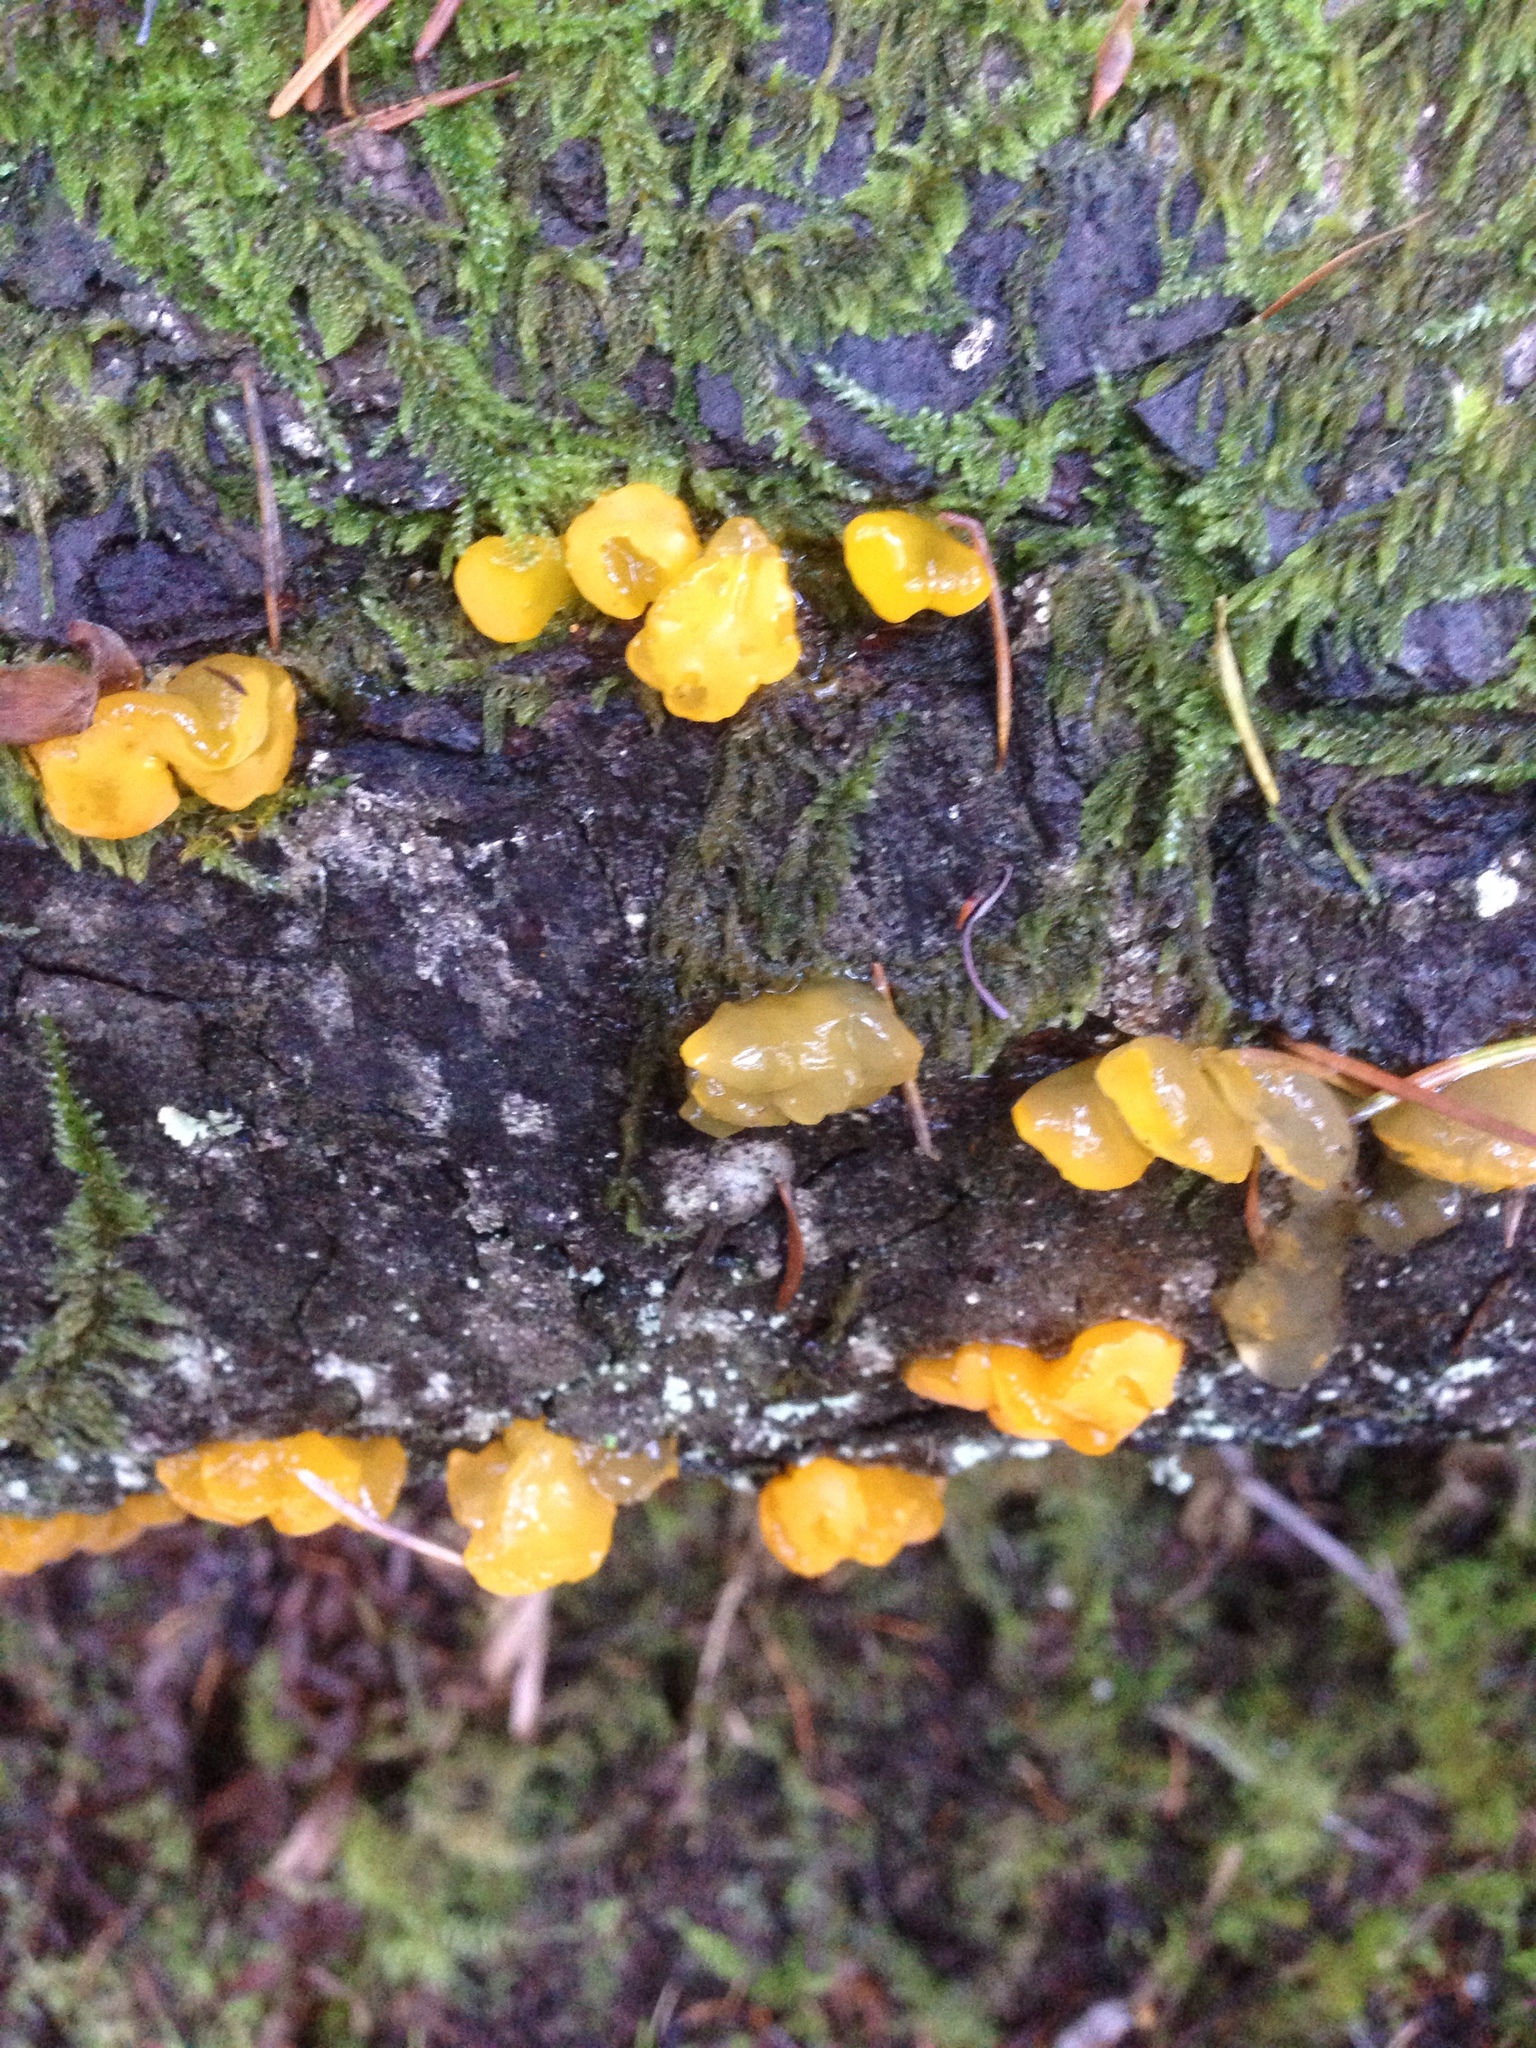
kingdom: Fungi
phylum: Basidiomycota
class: Tremellomycetes
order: Tremellales
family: Tremellaceae
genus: Tremella
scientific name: Tremella mesenterica
